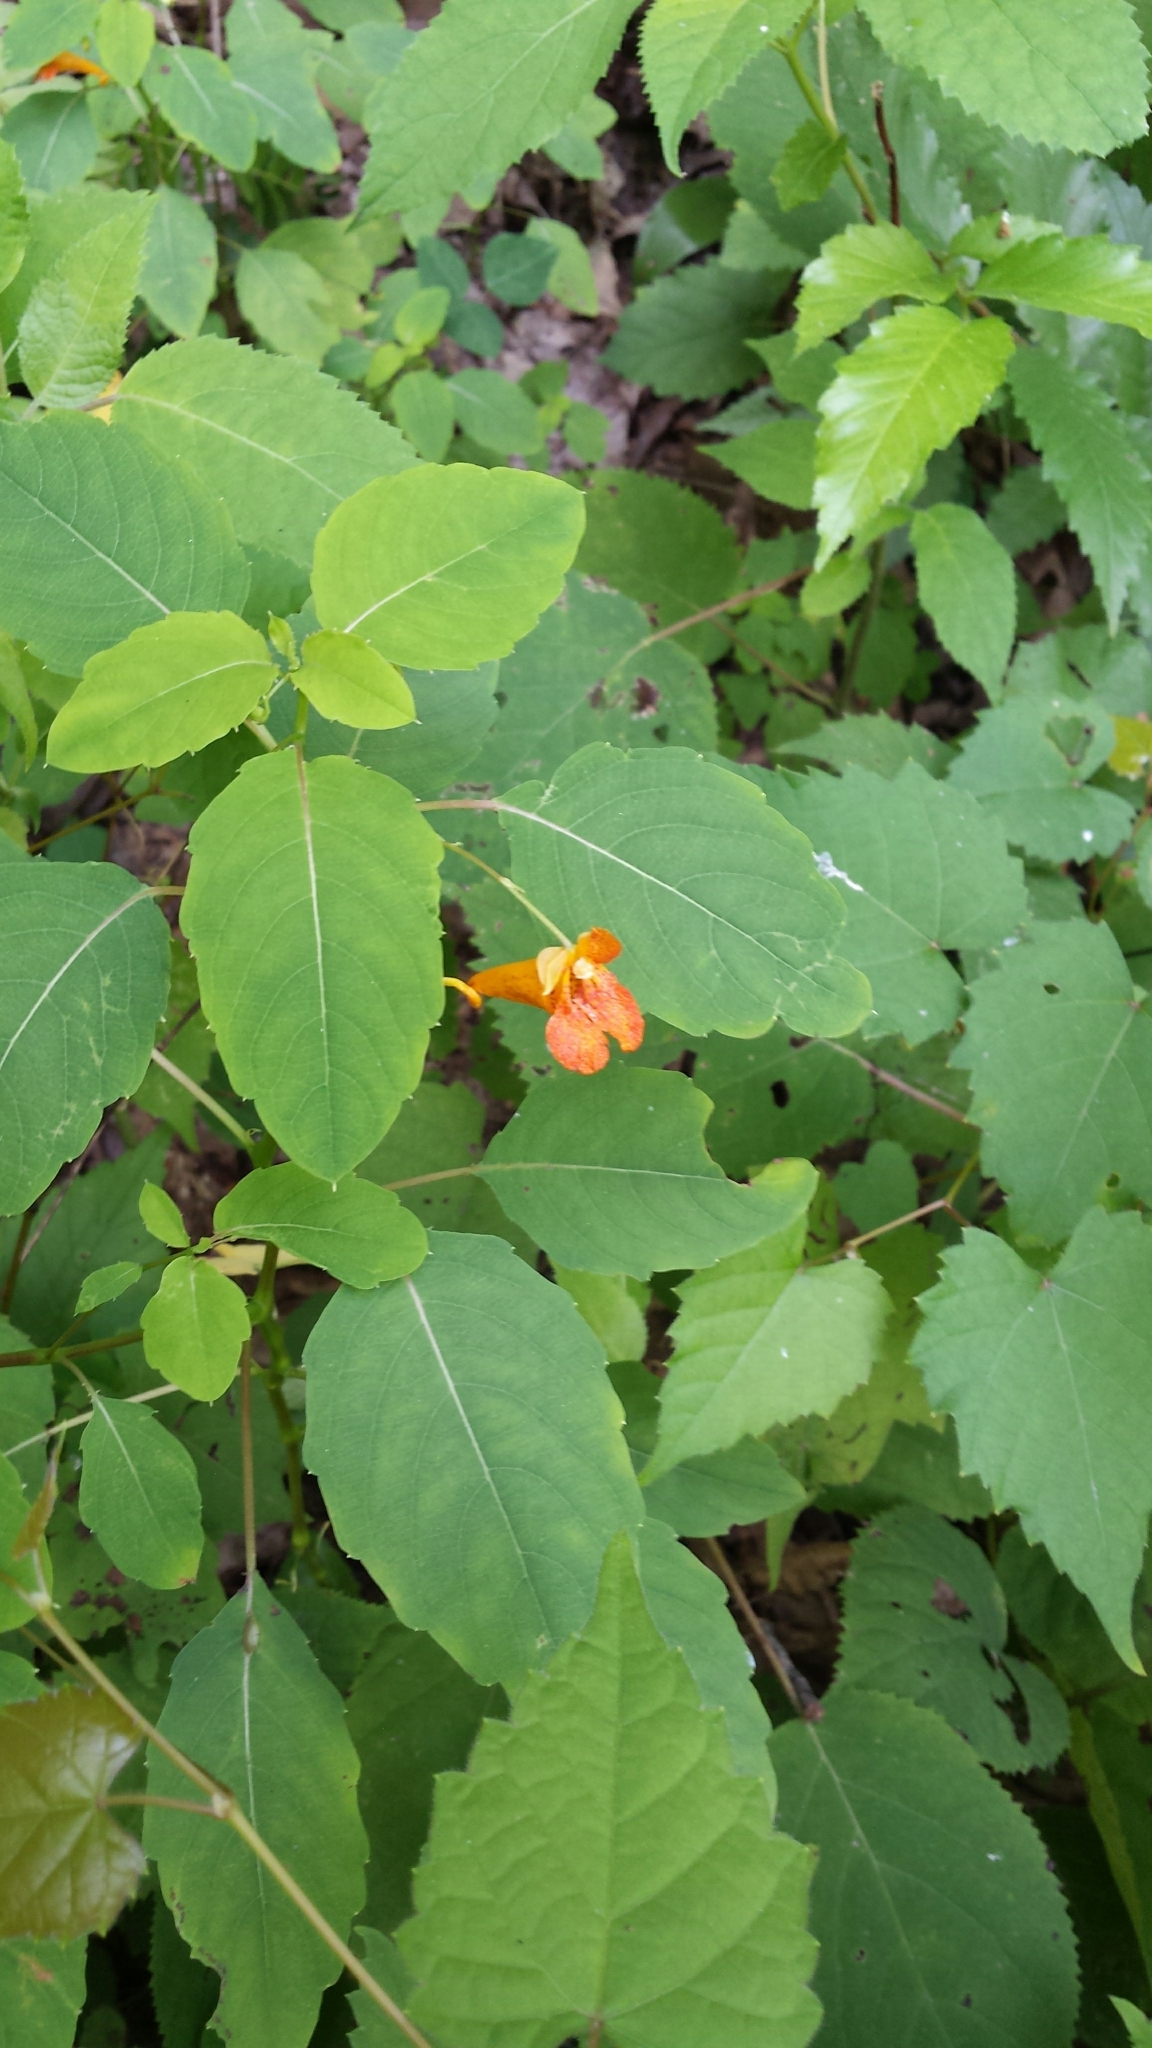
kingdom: Plantae
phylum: Tracheophyta
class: Magnoliopsida
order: Ericales
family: Balsaminaceae
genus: Impatiens
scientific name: Impatiens capensis
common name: Orange balsam
